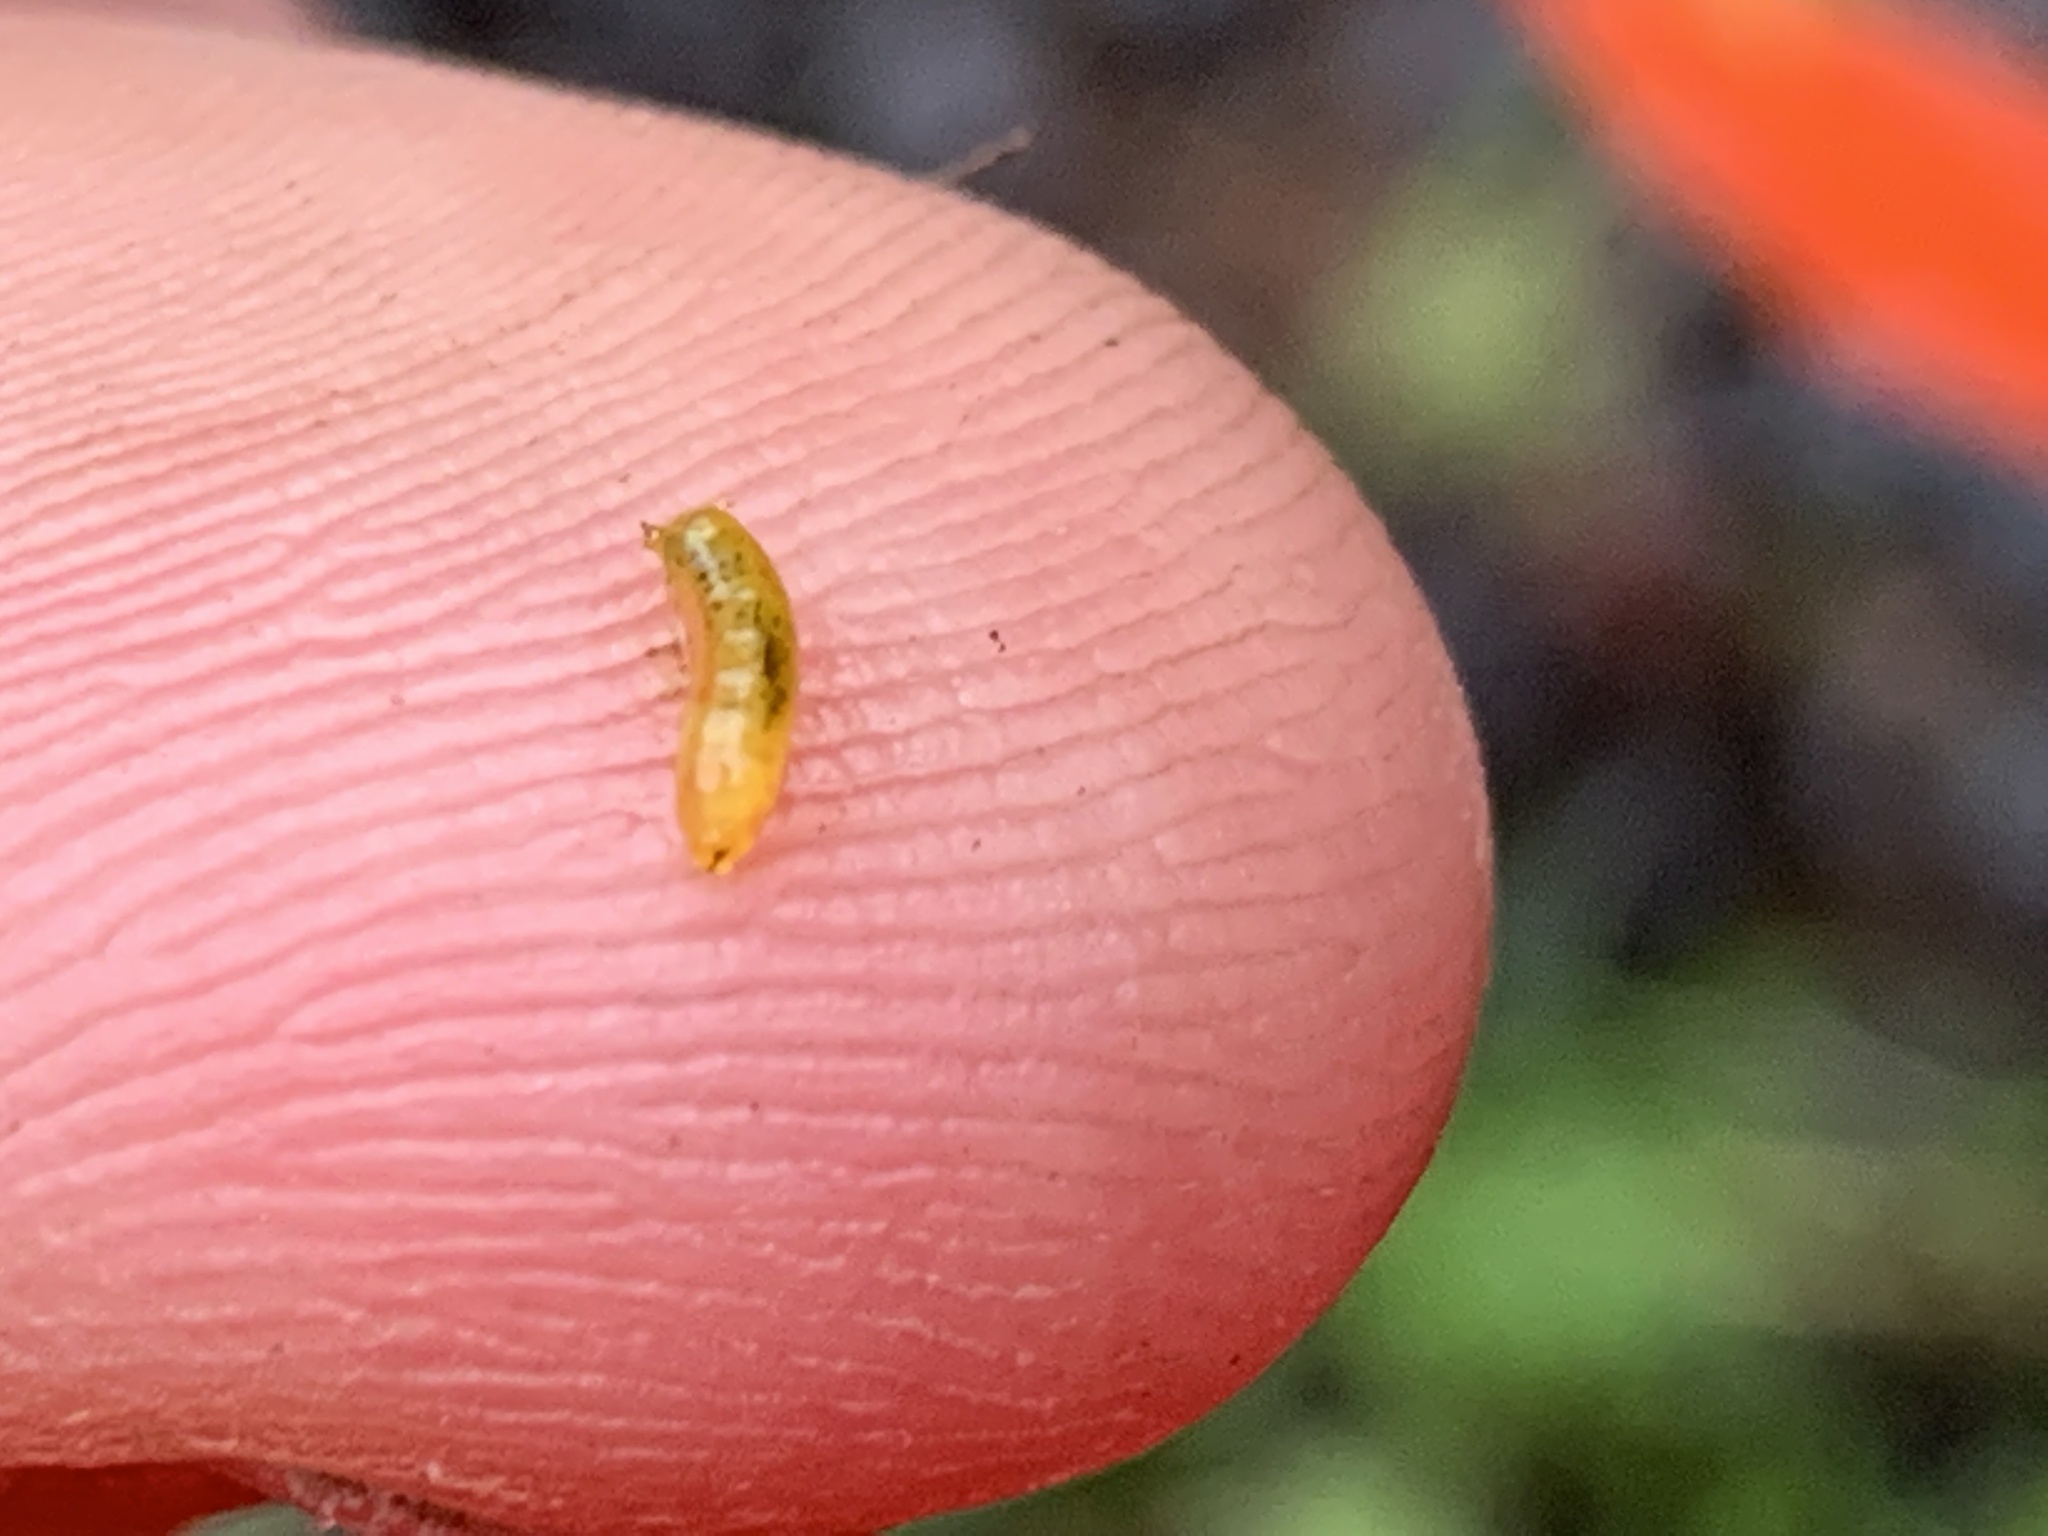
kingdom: Animalia
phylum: Arthropoda
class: Insecta
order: Diptera
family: Agromyzidae
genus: Calycomyza
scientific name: Calycomyza flavinotum
